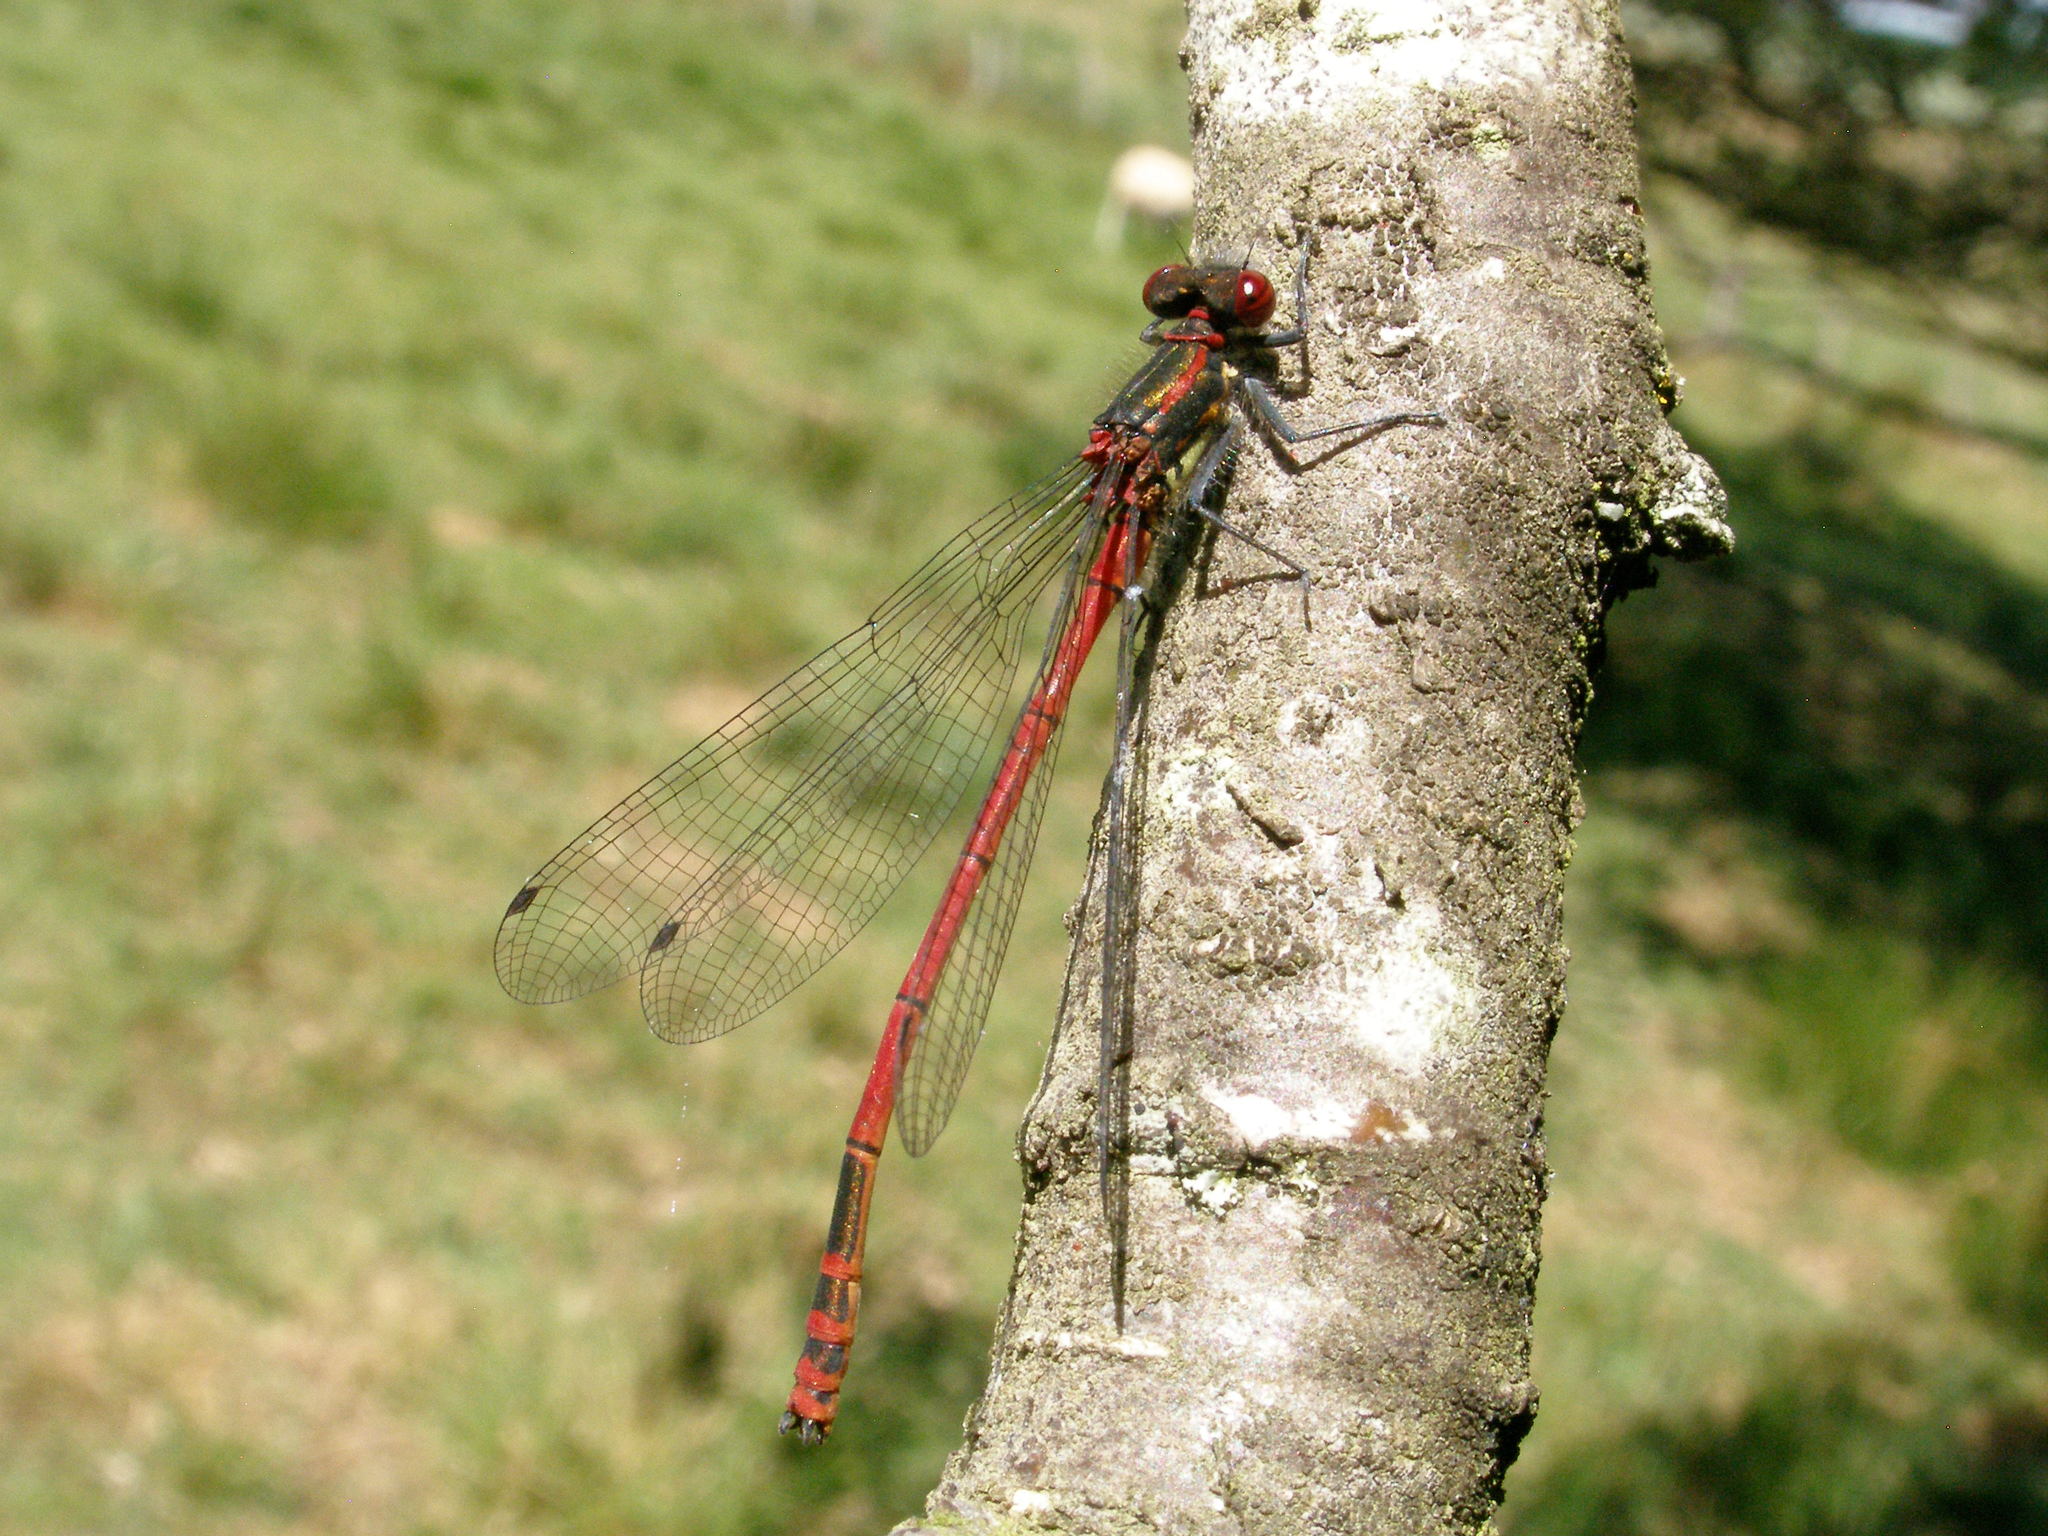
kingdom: Animalia
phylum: Arthropoda
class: Insecta
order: Odonata
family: Coenagrionidae
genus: Pyrrhosoma
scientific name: Pyrrhosoma nymphula
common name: Large red damsel
